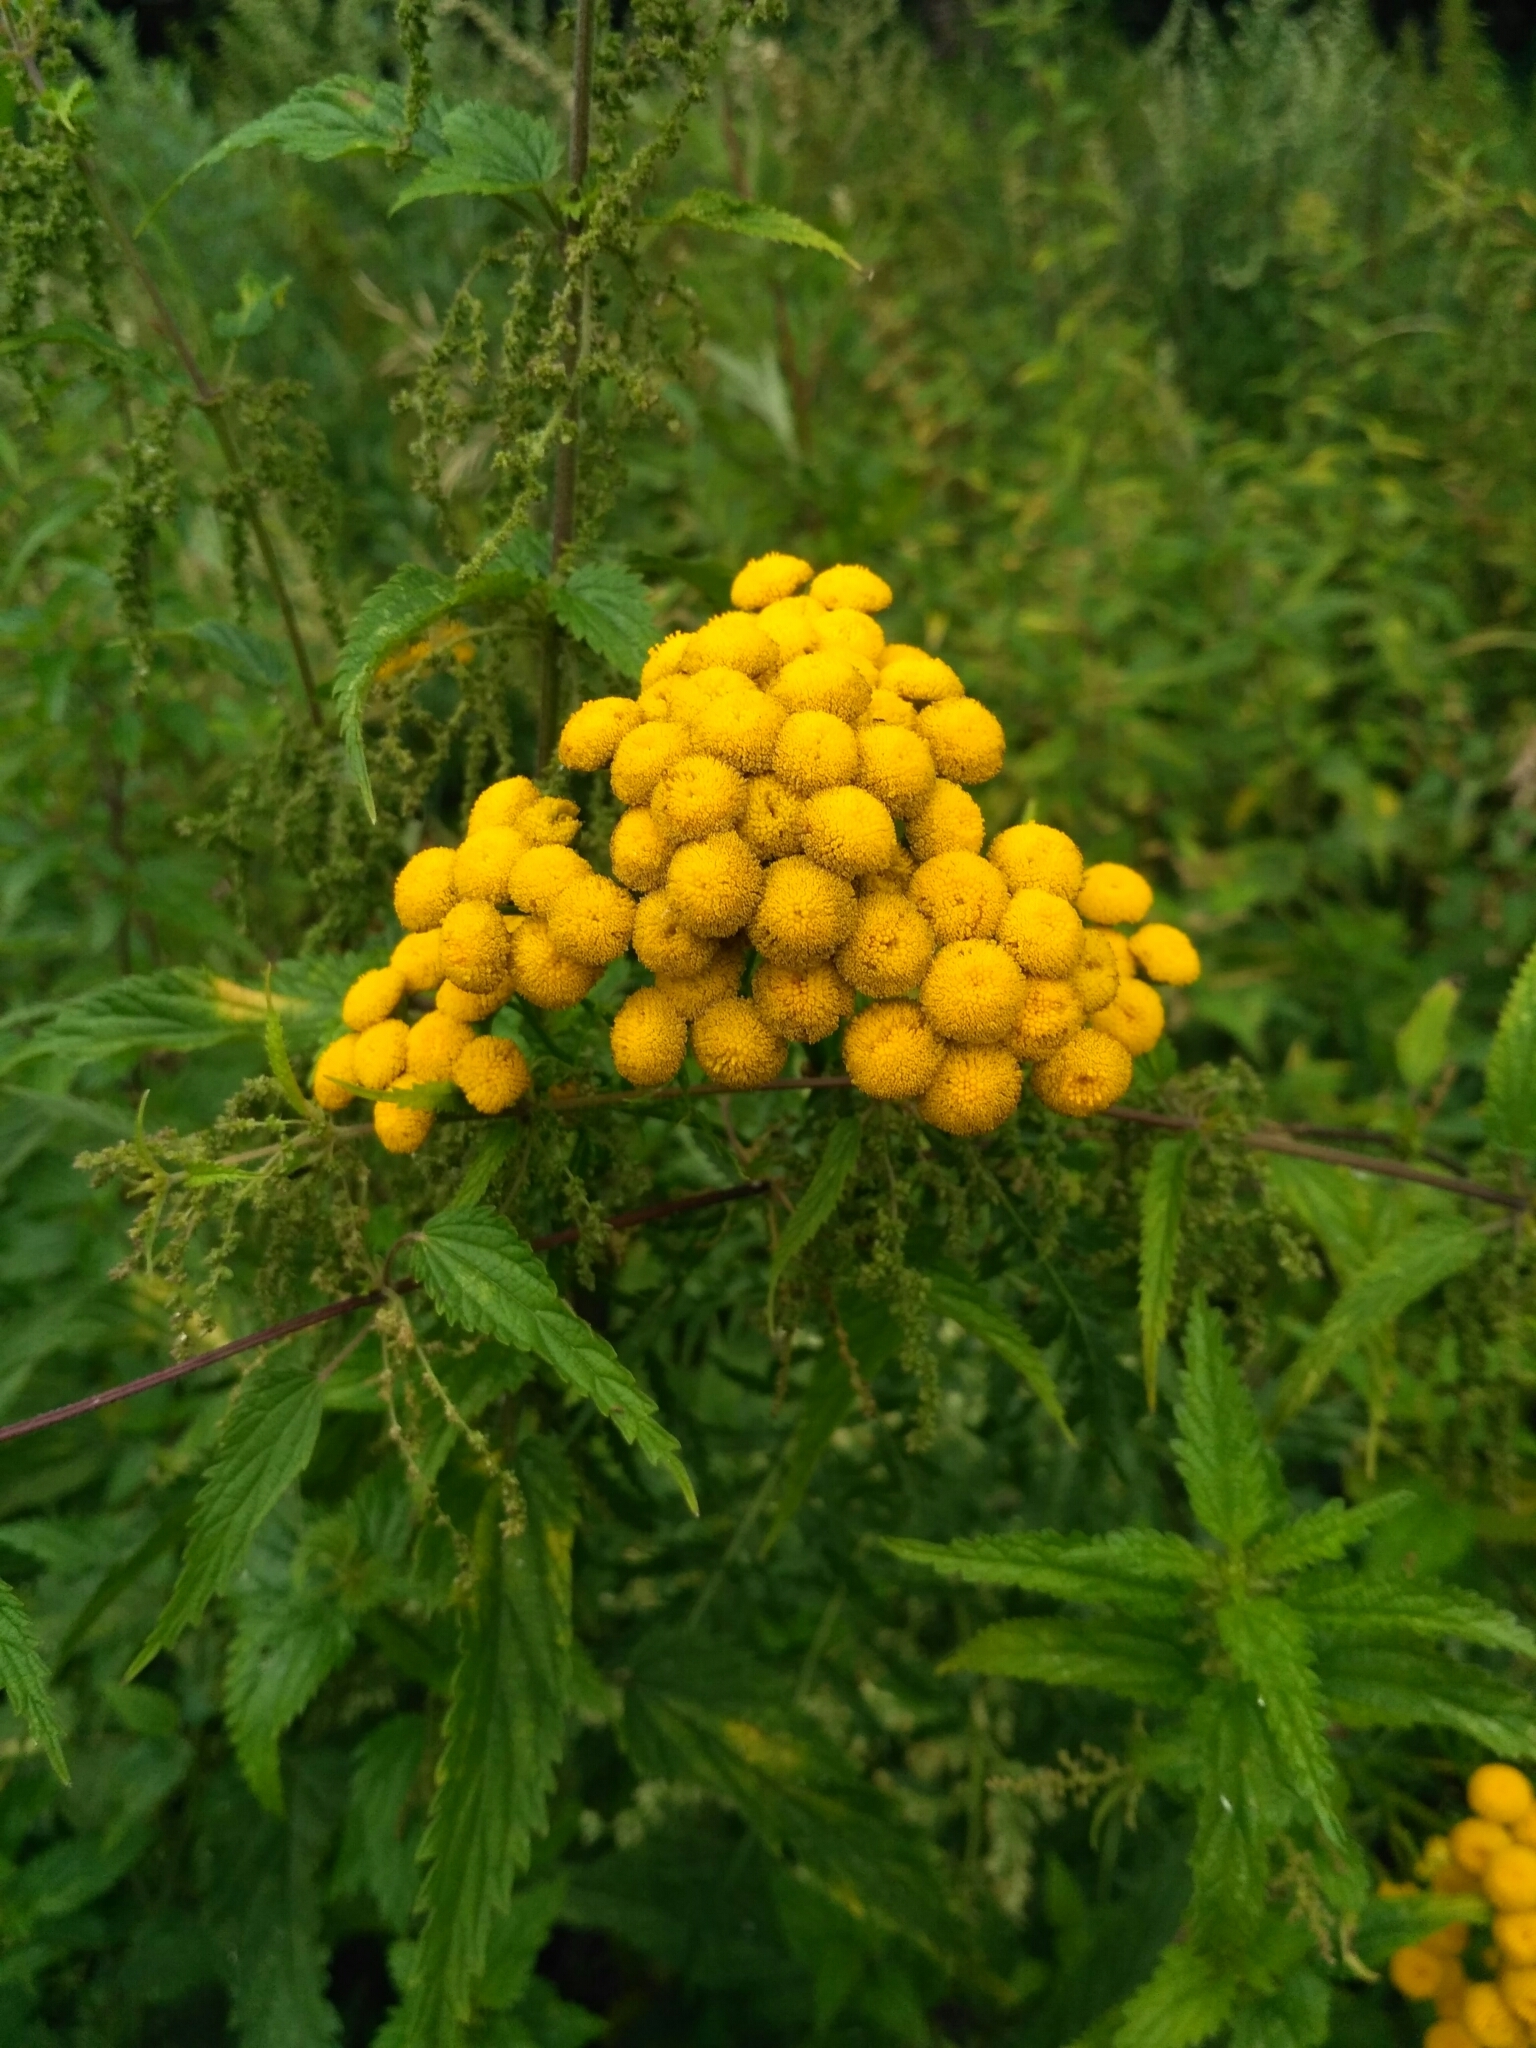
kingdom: Plantae
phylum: Tracheophyta
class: Magnoliopsida
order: Asterales
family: Asteraceae
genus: Tanacetum
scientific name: Tanacetum vulgare
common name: Common tansy
